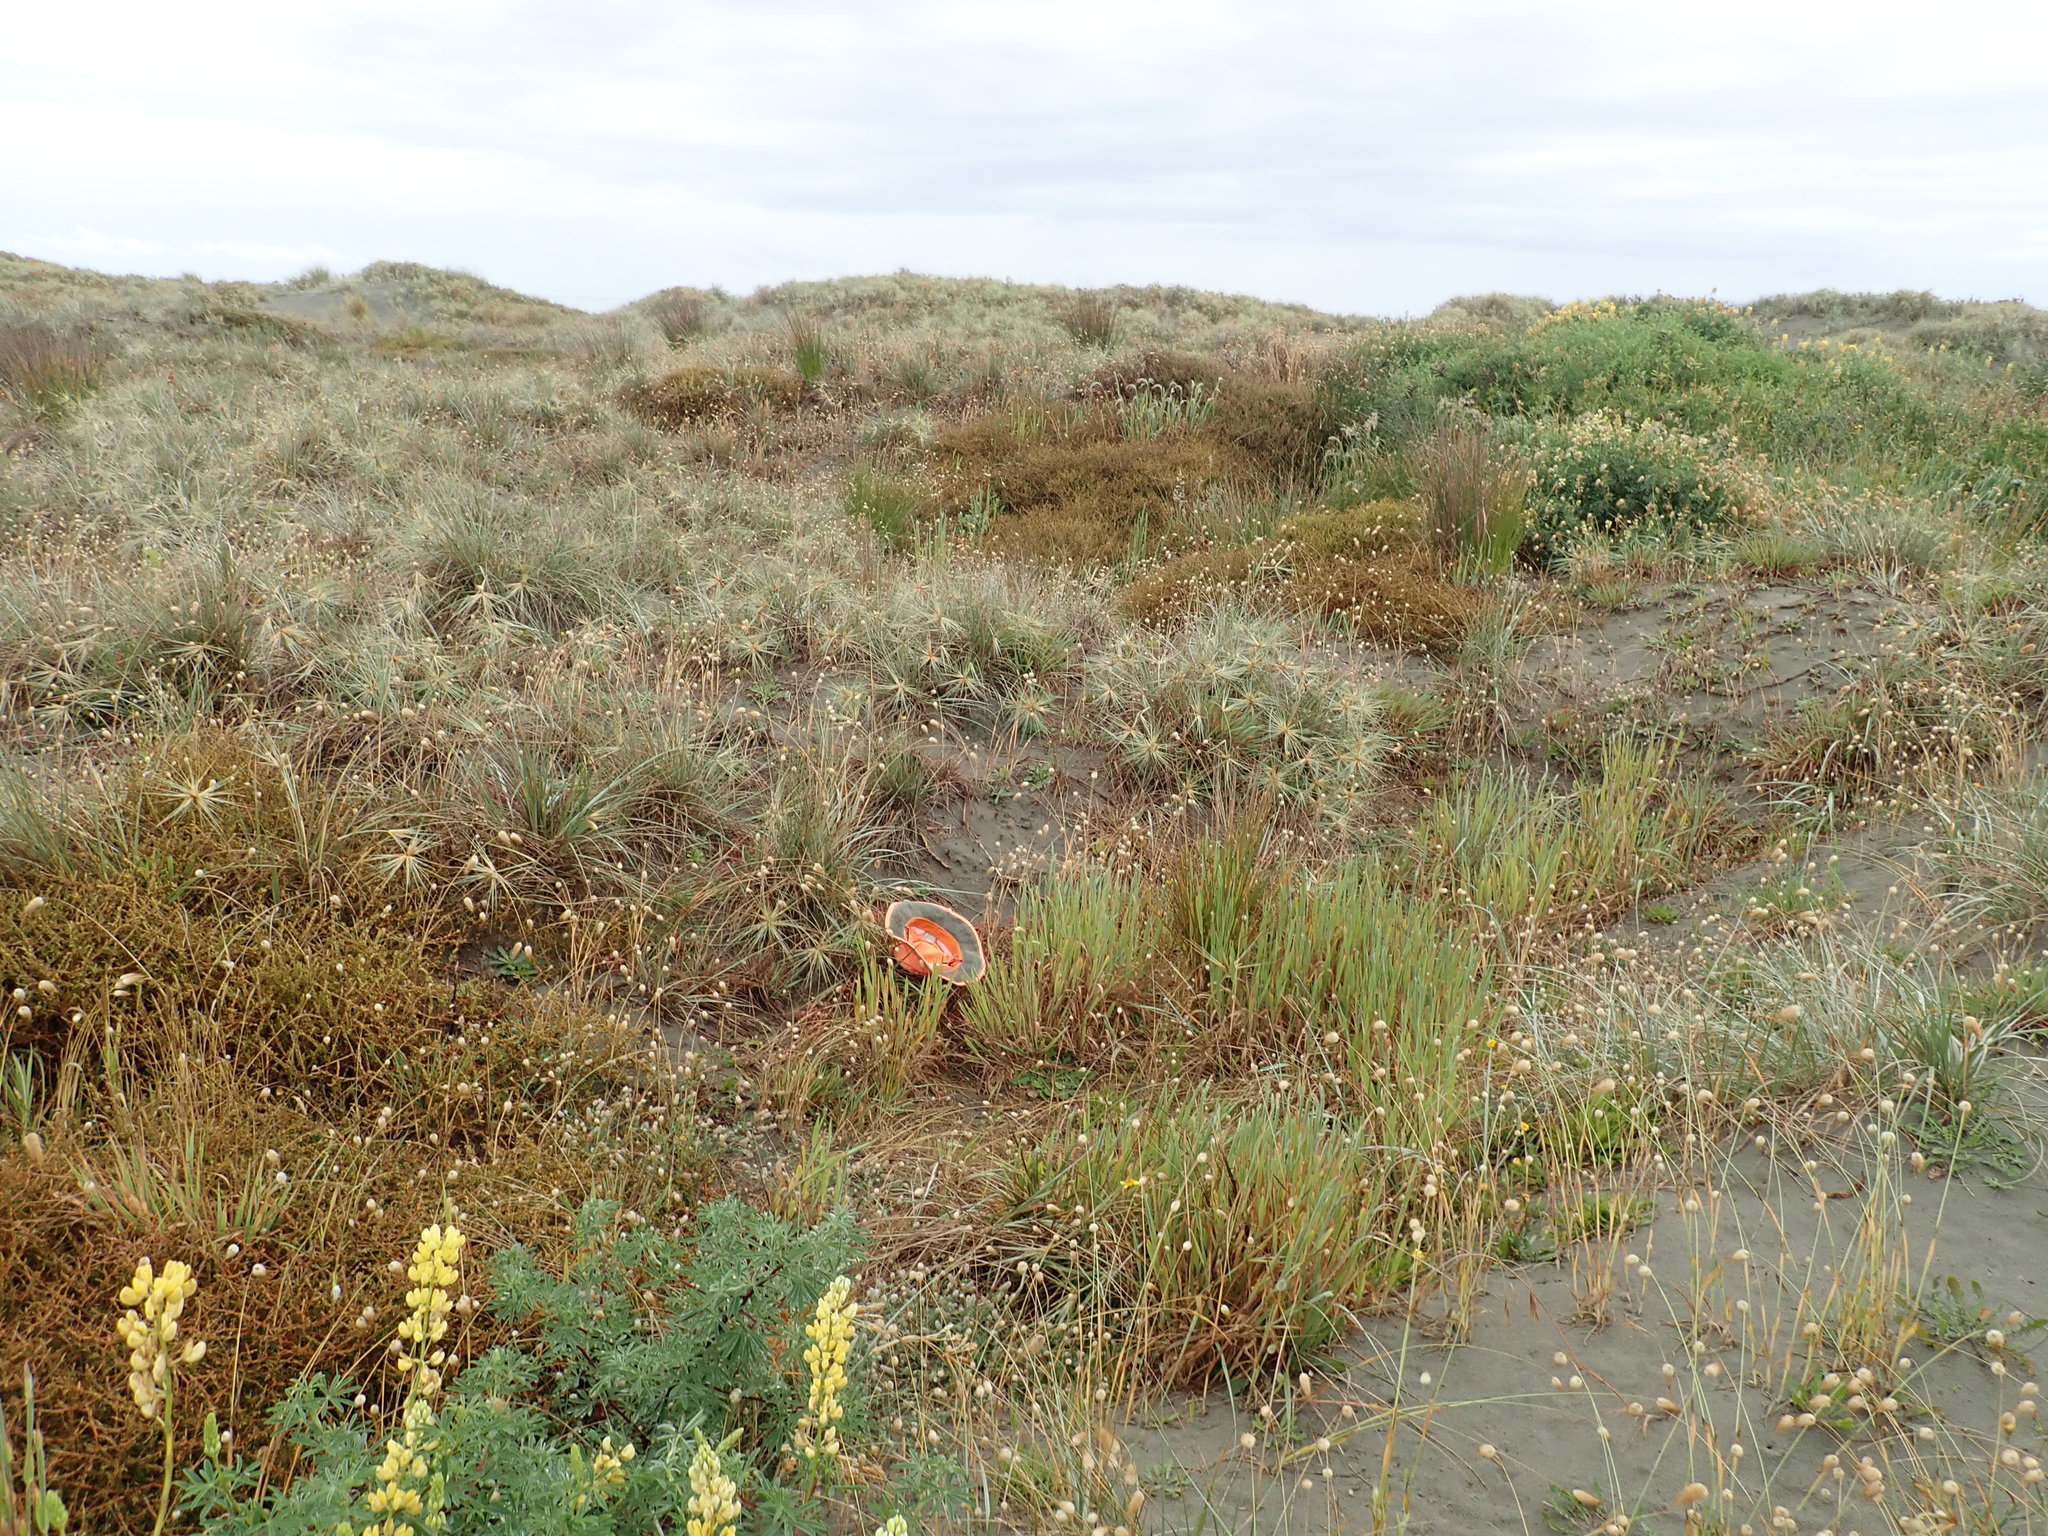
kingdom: Plantae
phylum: Tracheophyta
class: Magnoliopsida
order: Malpighiales
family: Linaceae
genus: Radiola
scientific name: Radiola linoides
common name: Allseed
